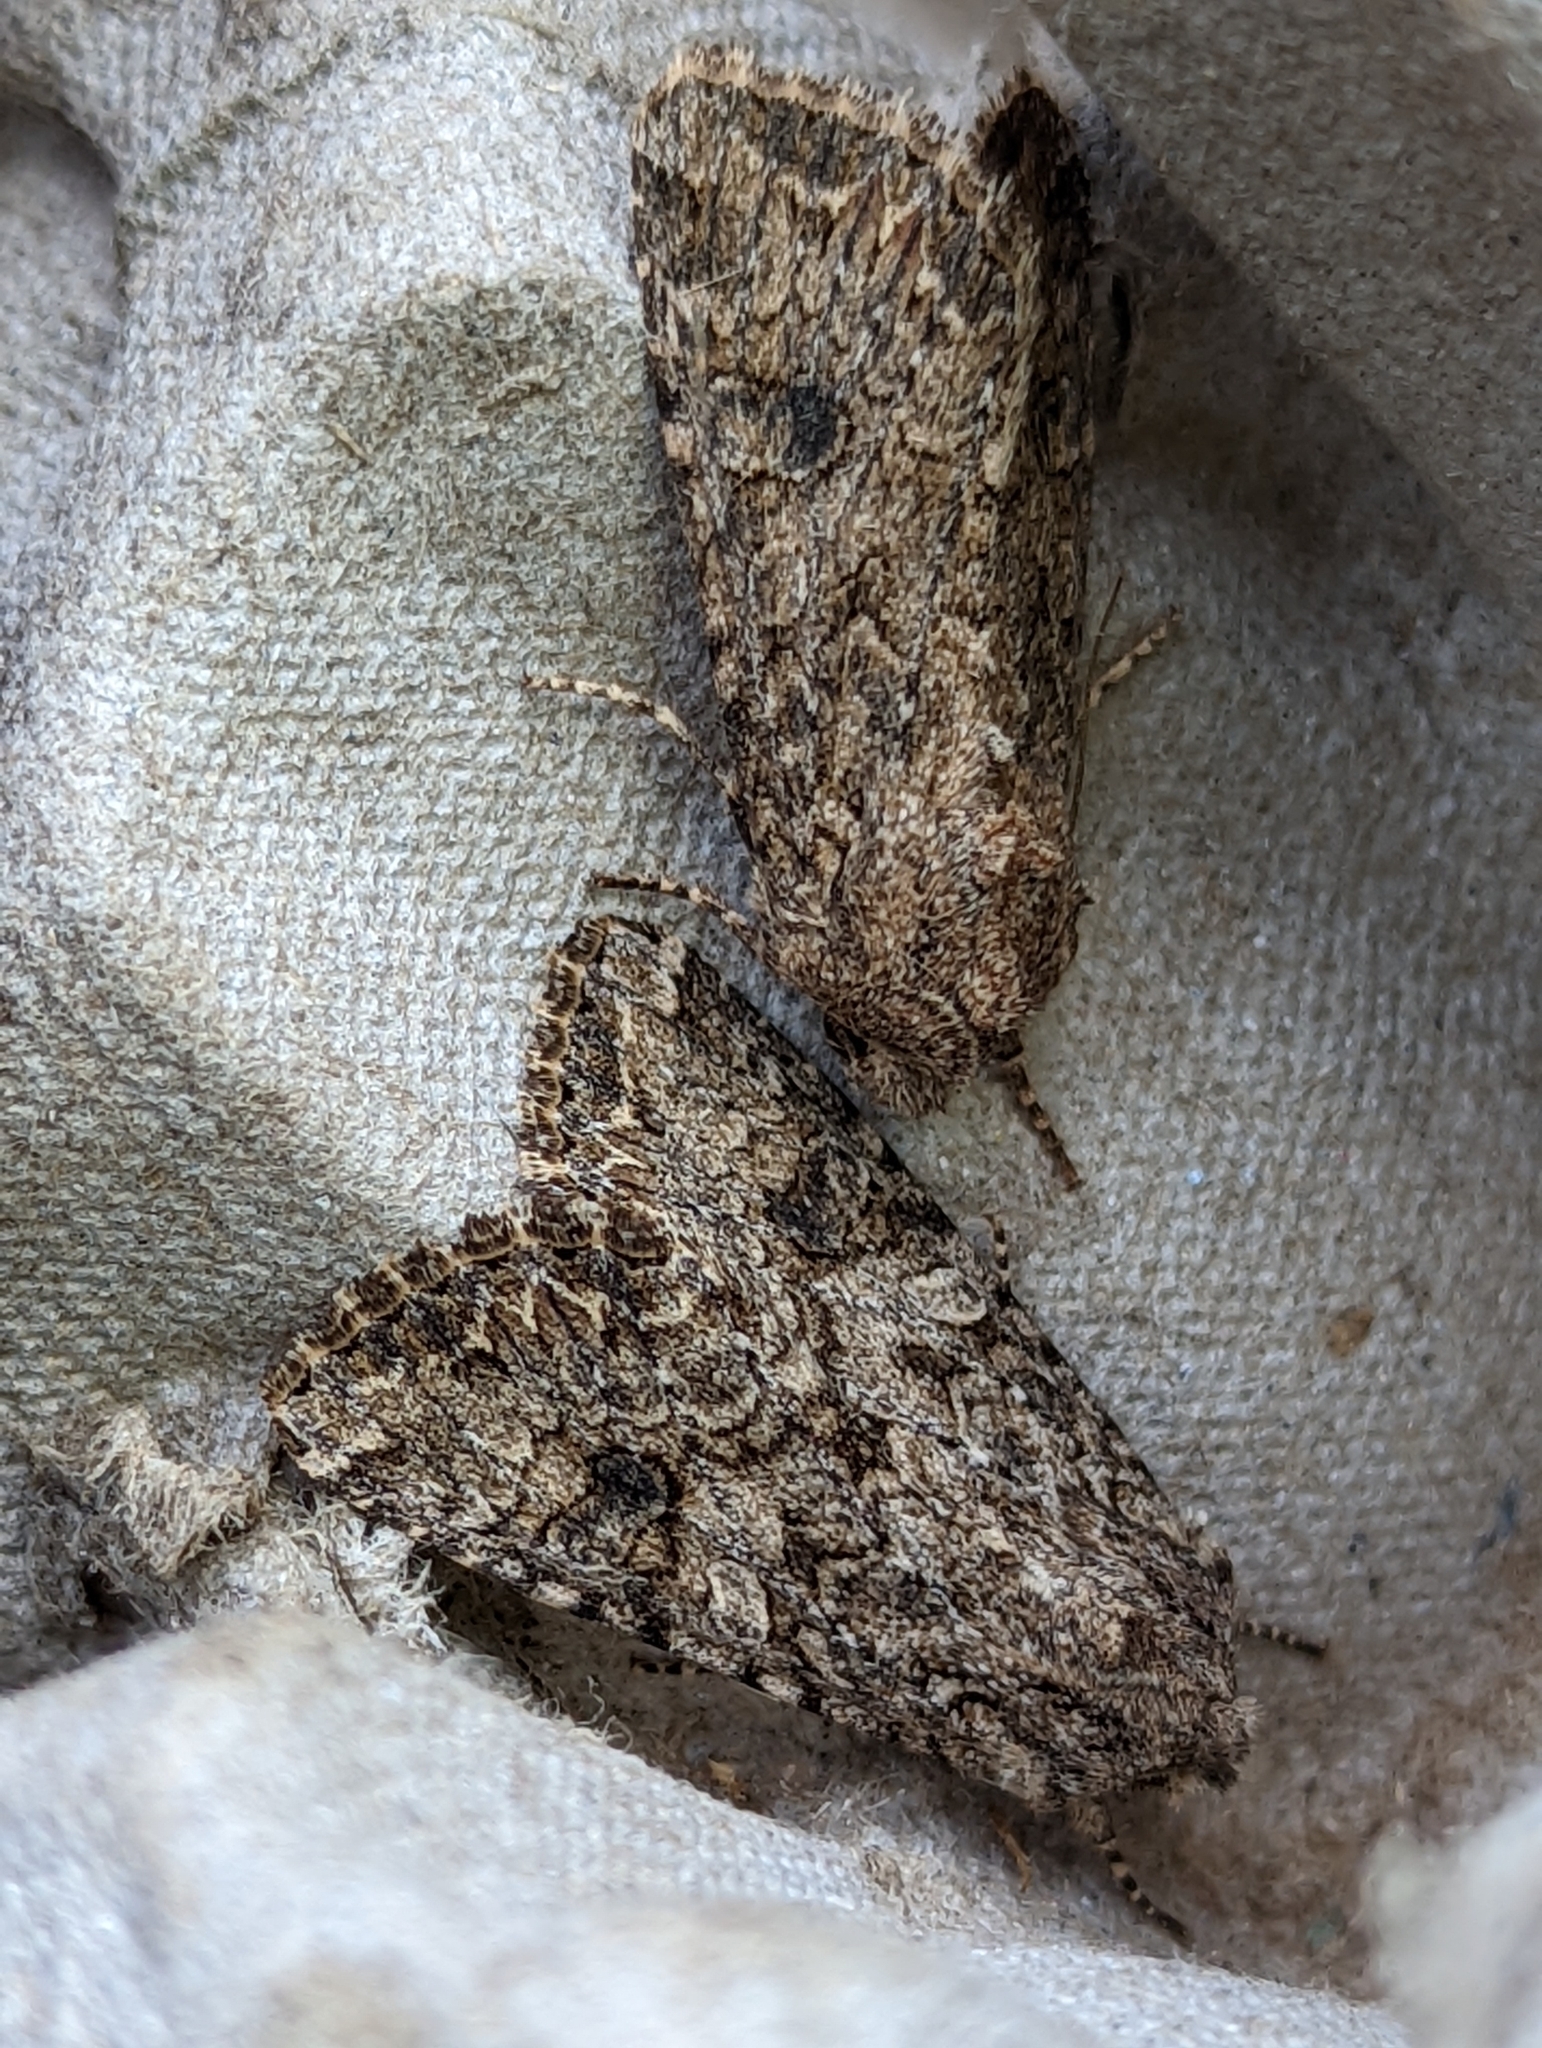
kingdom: Animalia
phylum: Arthropoda
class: Insecta
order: Lepidoptera
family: Noctuidae
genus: Anarta
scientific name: Anarta trifolii
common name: Clover cutworm moth
